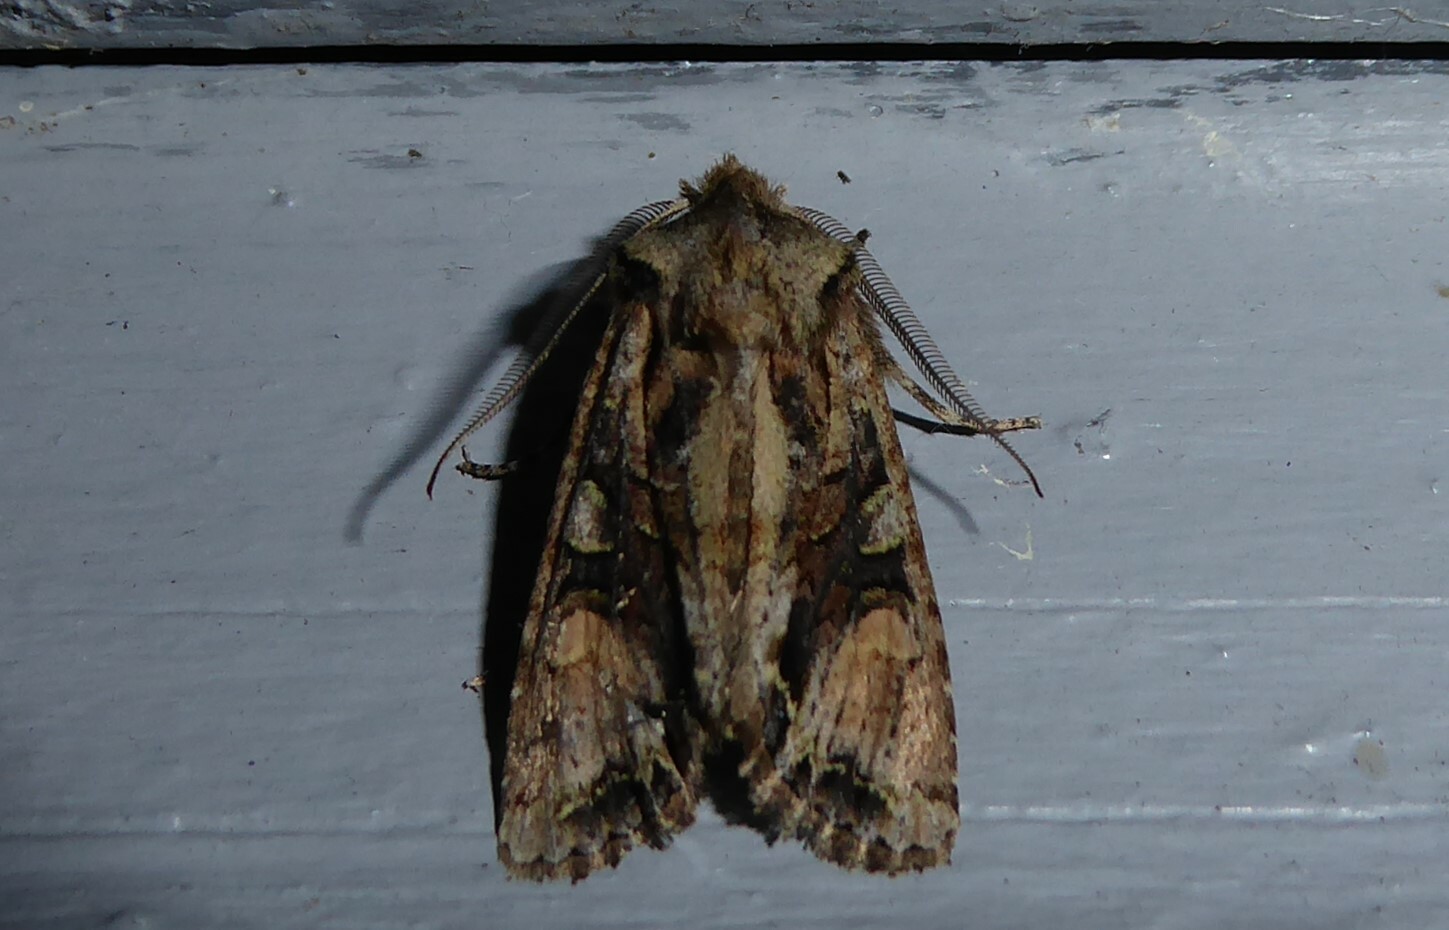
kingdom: Animalia
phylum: Arthropoda
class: Insecta
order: Lepidoptera
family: Noctuidae
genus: Ichneutica
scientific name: Ichneutica
